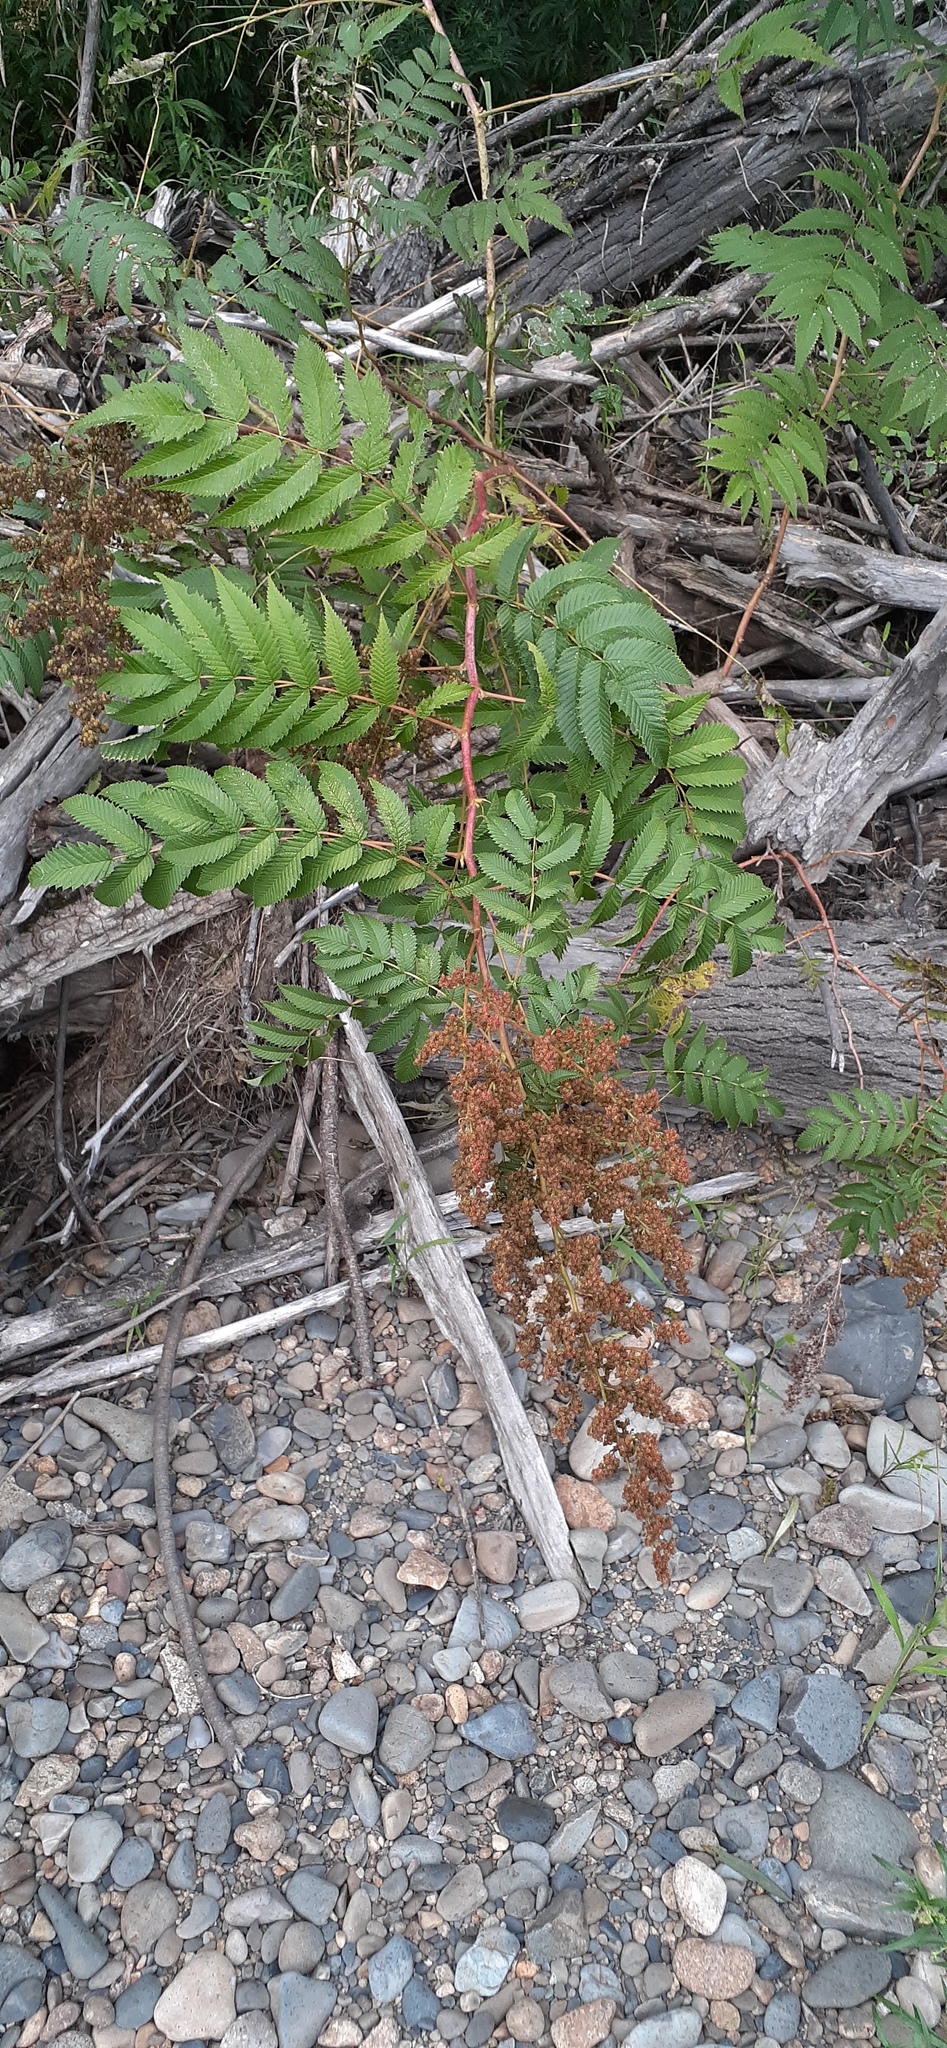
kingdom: Plantae
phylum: Tracheophyta
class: Magnoliopsida
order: Rosales
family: Rosaceae
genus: Sorbaria
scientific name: Sorbaria sorbifolia
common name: False spiraea
